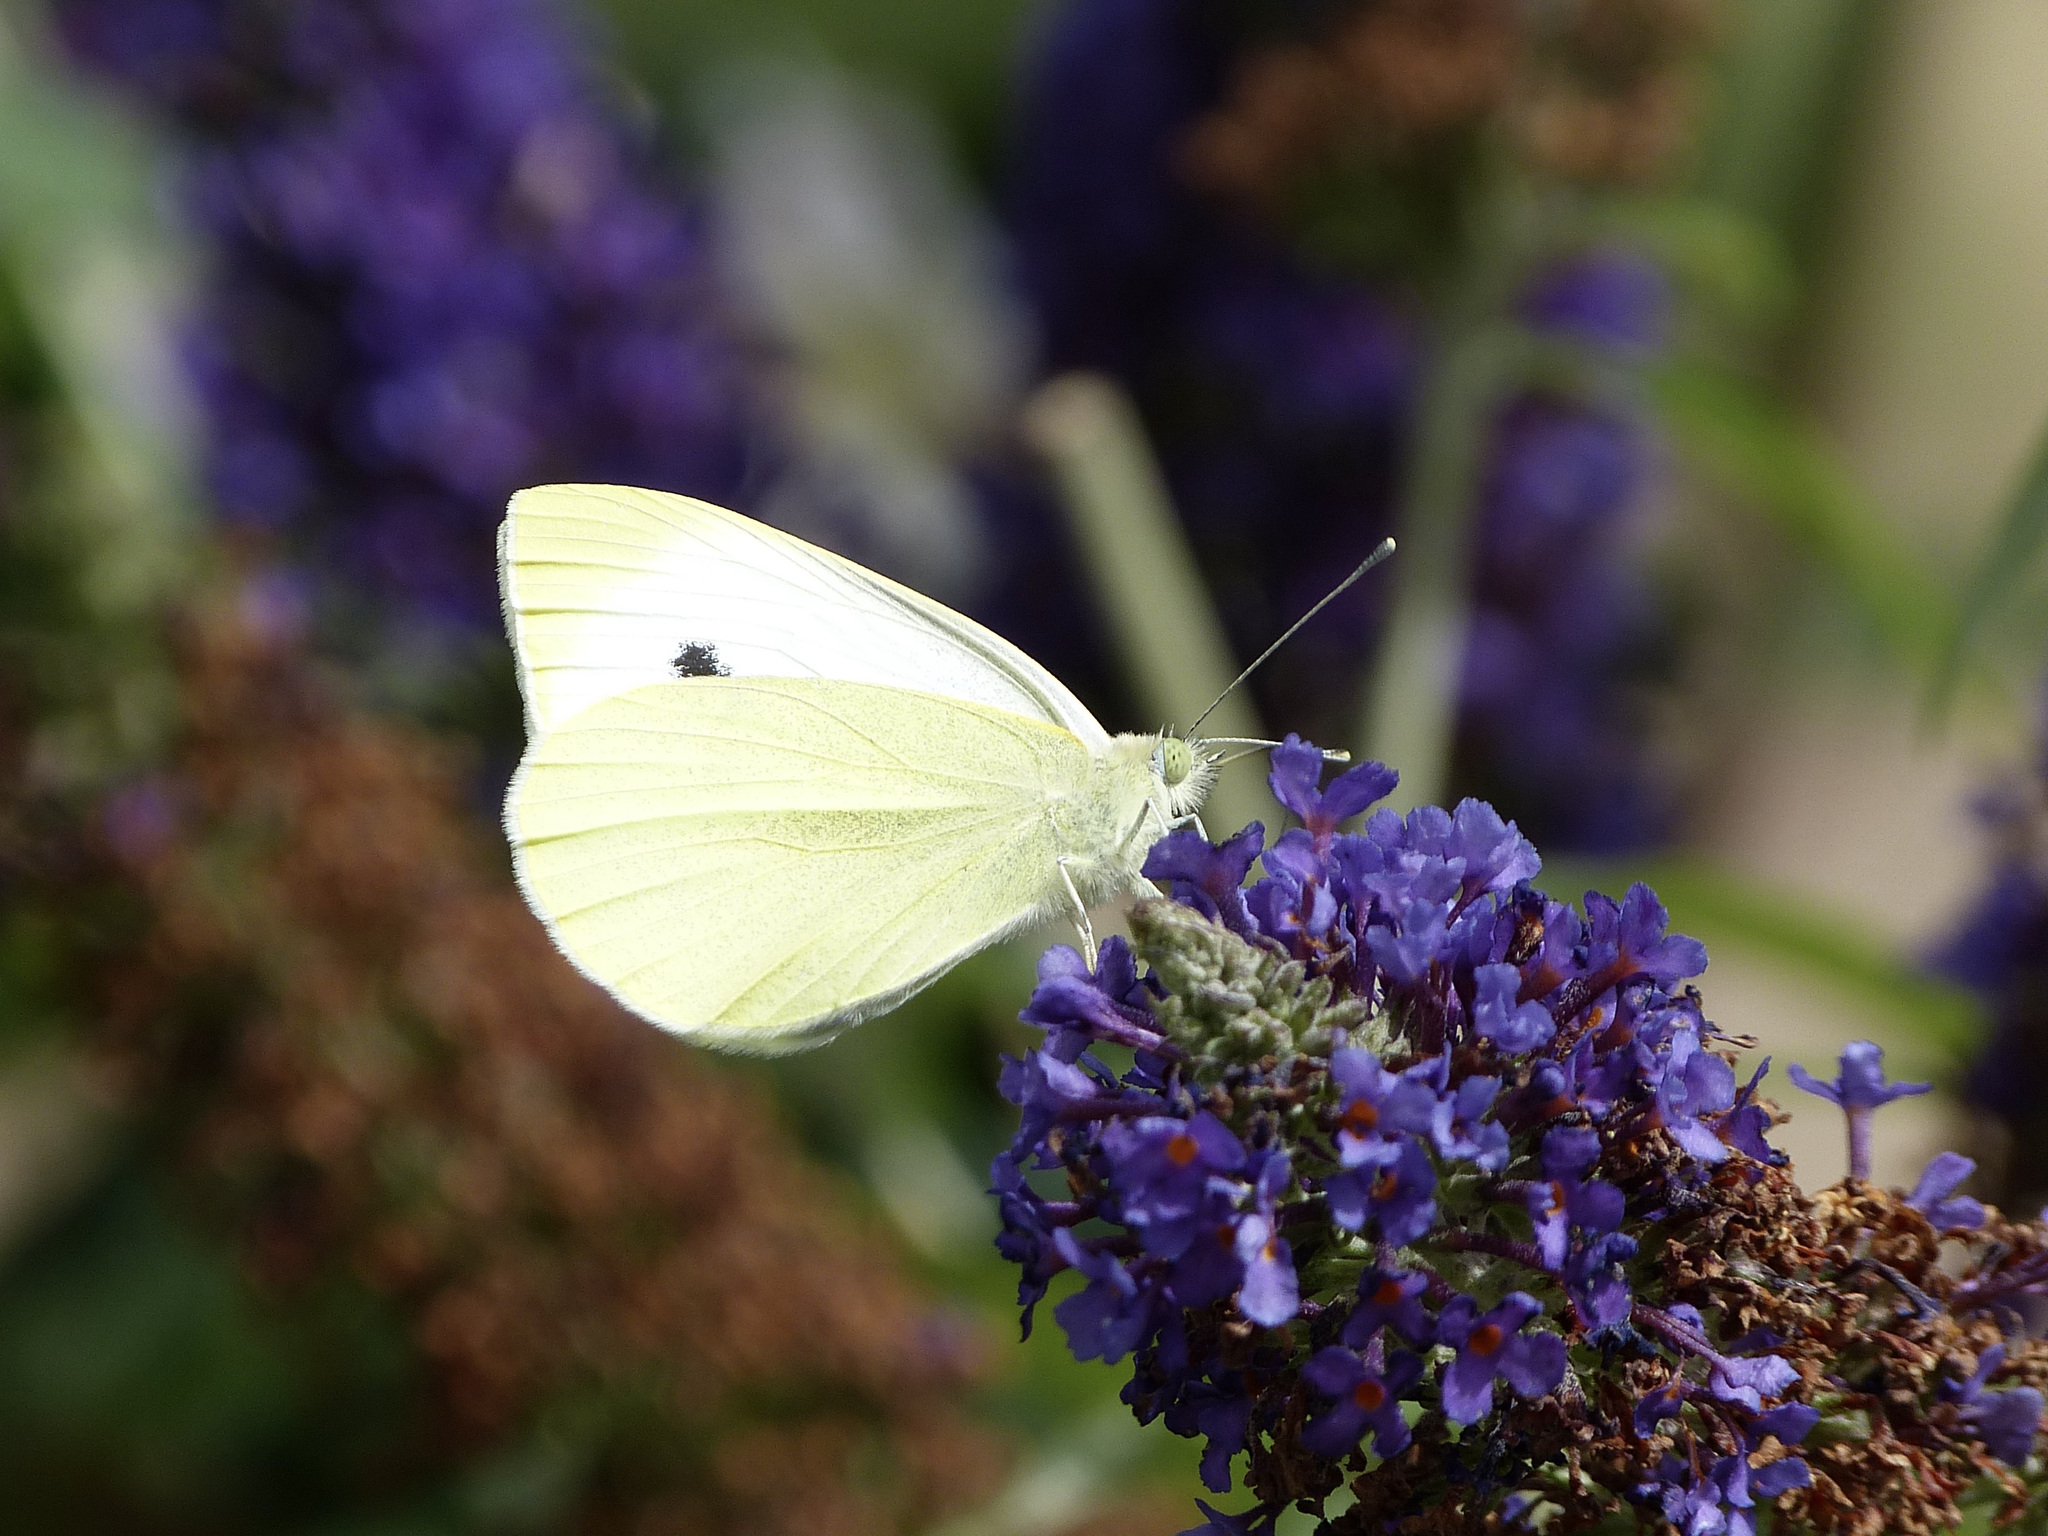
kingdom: Animalia
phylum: Arthropoda
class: Insecta
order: Lepidoptera
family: Pieridae
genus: Pieris
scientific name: Pieris rapae
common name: Small white
